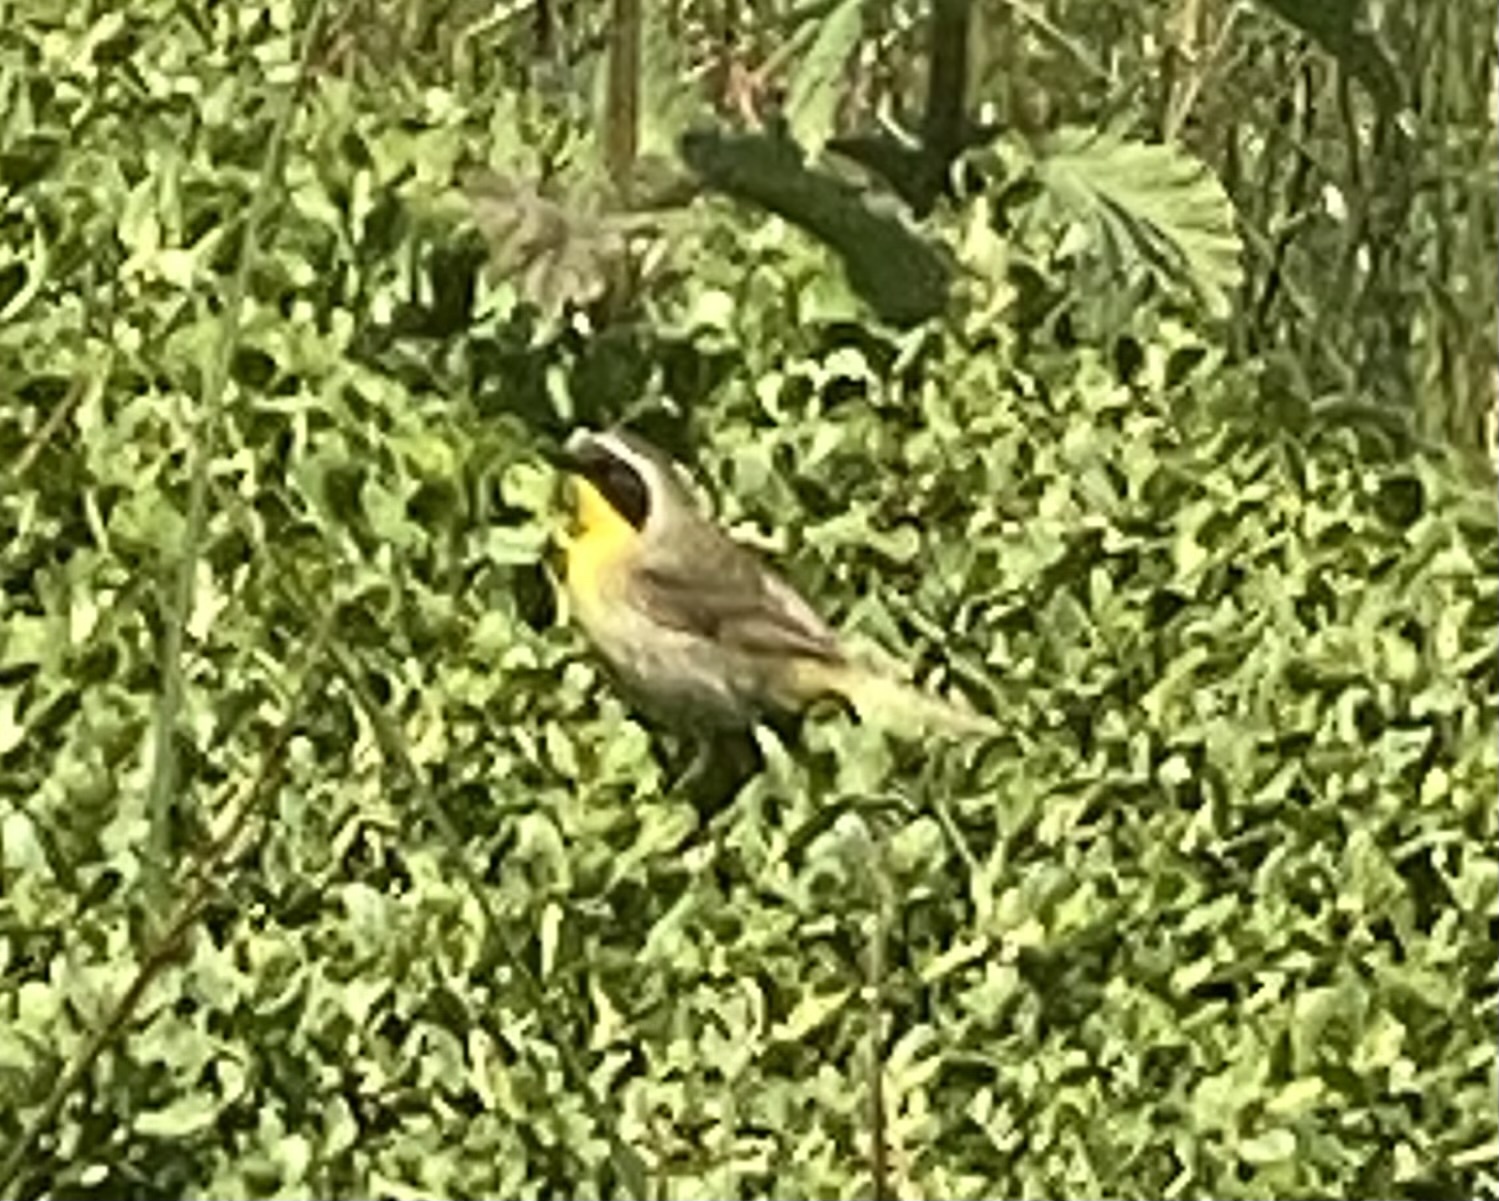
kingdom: Animalia
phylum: Chordata
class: Aves
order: Passeriformes
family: Parulidae
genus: Geothlypis
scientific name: Geothlypis trichas
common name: Common yellowthroat
